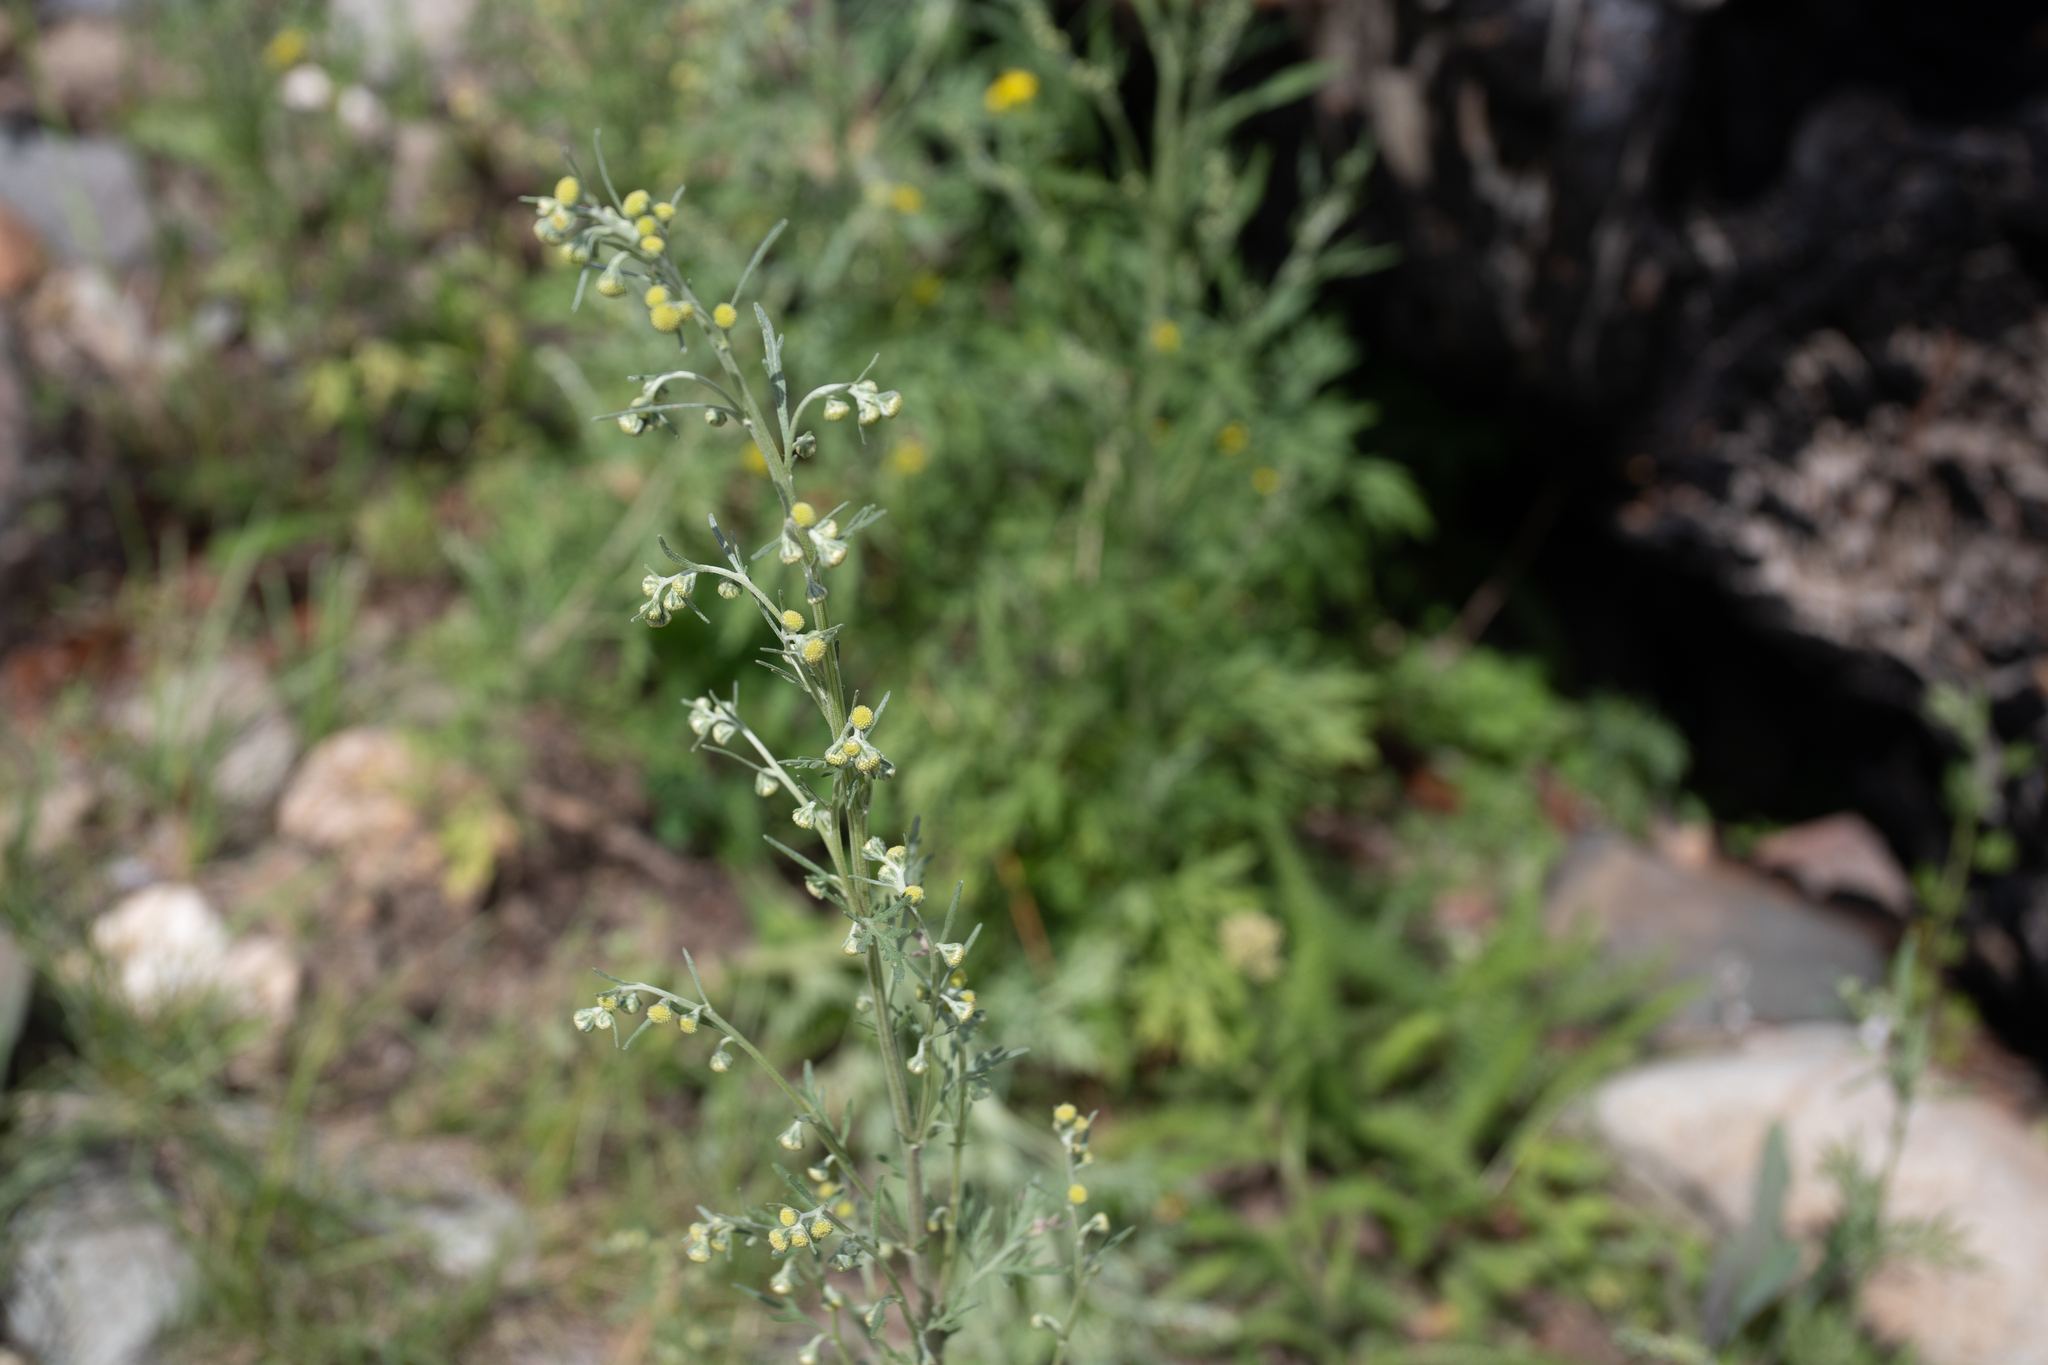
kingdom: Plantae
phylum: Tracheophyta
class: Magnoliopsida
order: Asterales
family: Asteraceae
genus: Artemisia
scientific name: Artemisia sieversiana
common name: Sieversian wormwood
